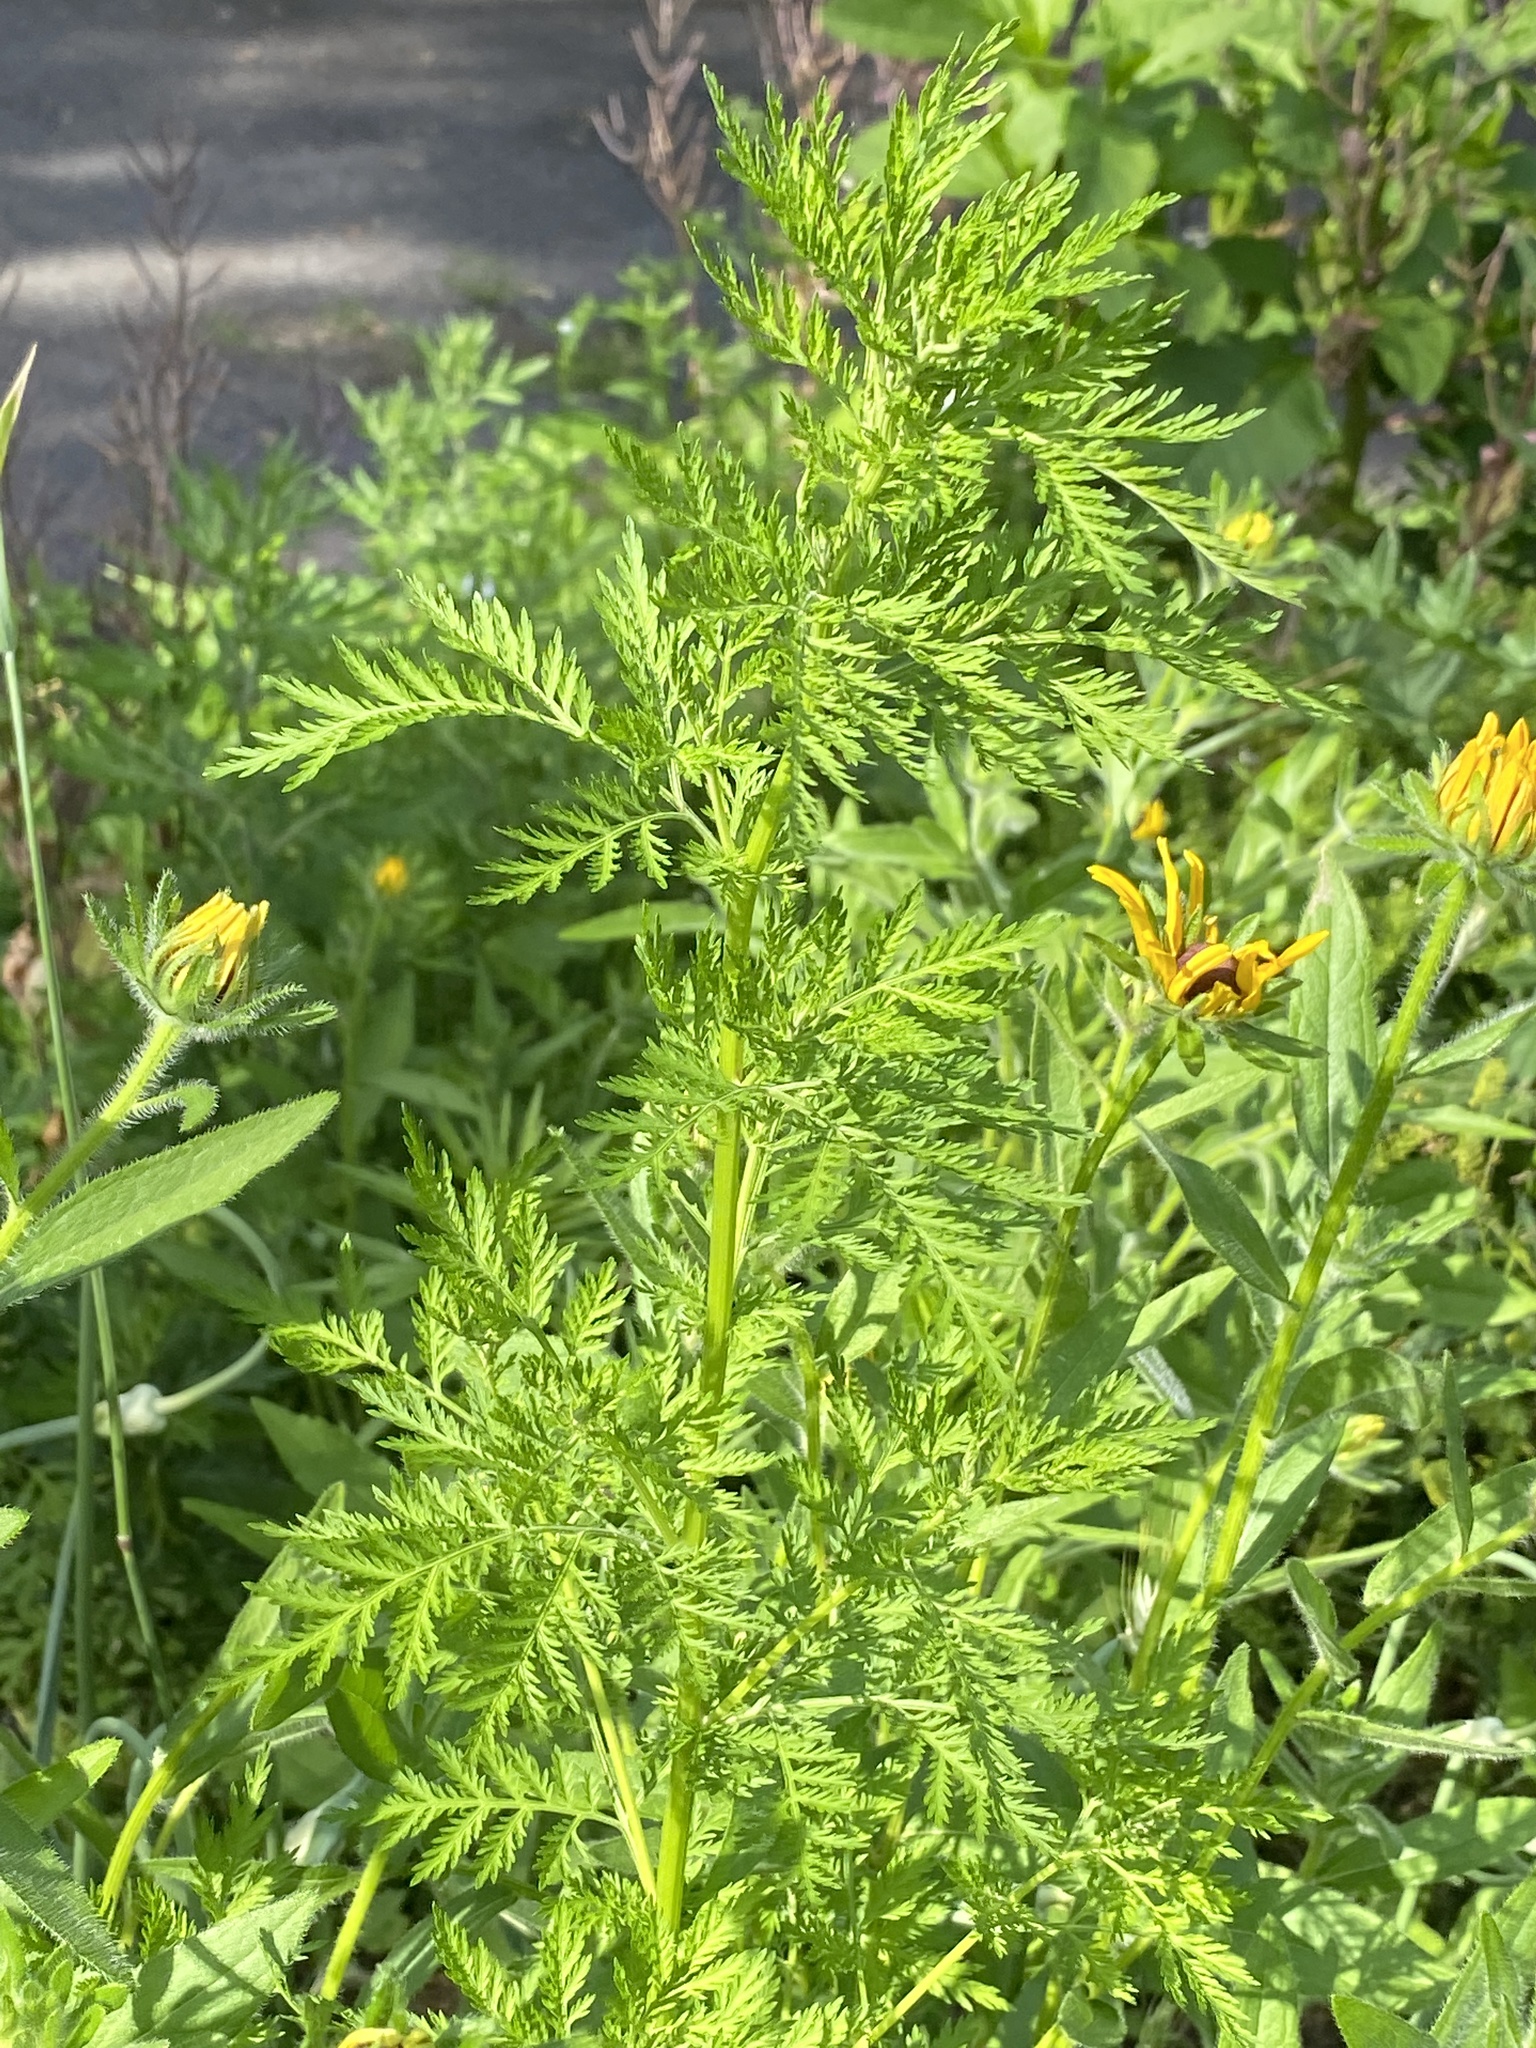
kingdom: Plantae
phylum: Tracheophyta
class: Magnoliopsida
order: Asterales
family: Asteraceae
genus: Artemisia
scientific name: Artemisia annua
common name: Sweet sagewort
